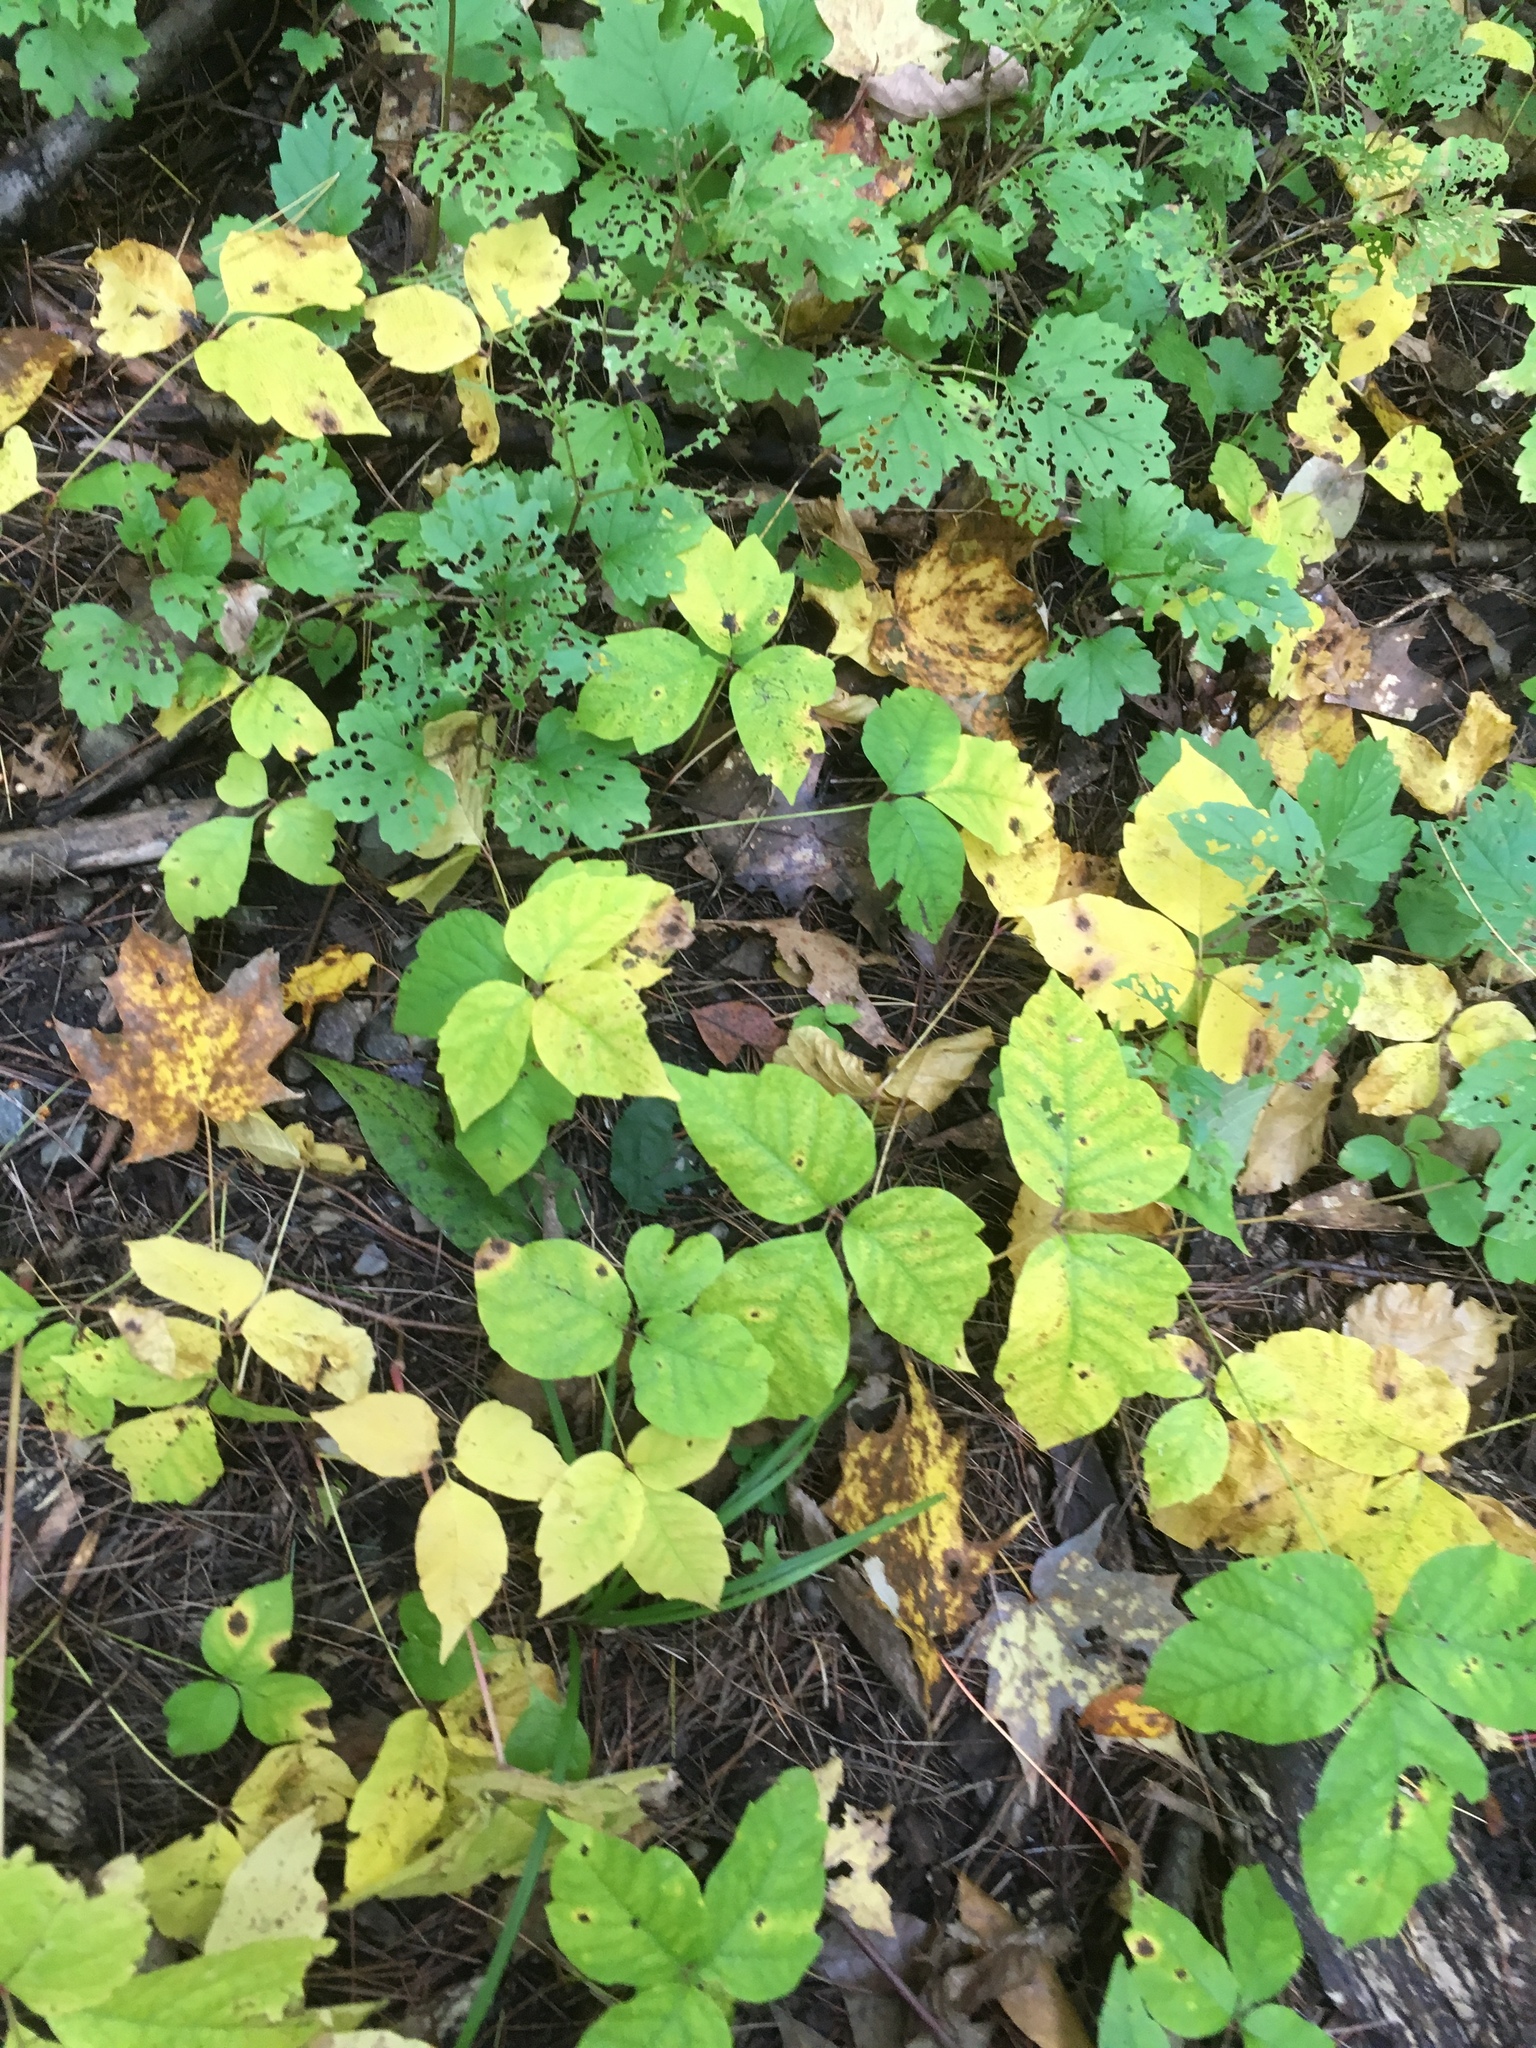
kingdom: Plantae
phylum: Tracheophyta
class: Magnoliopsida
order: Sapindales
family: Anacardiaceae
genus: Toxicodendron
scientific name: Toxicodendron rydbergii
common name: Rydberg's poison-ivy
